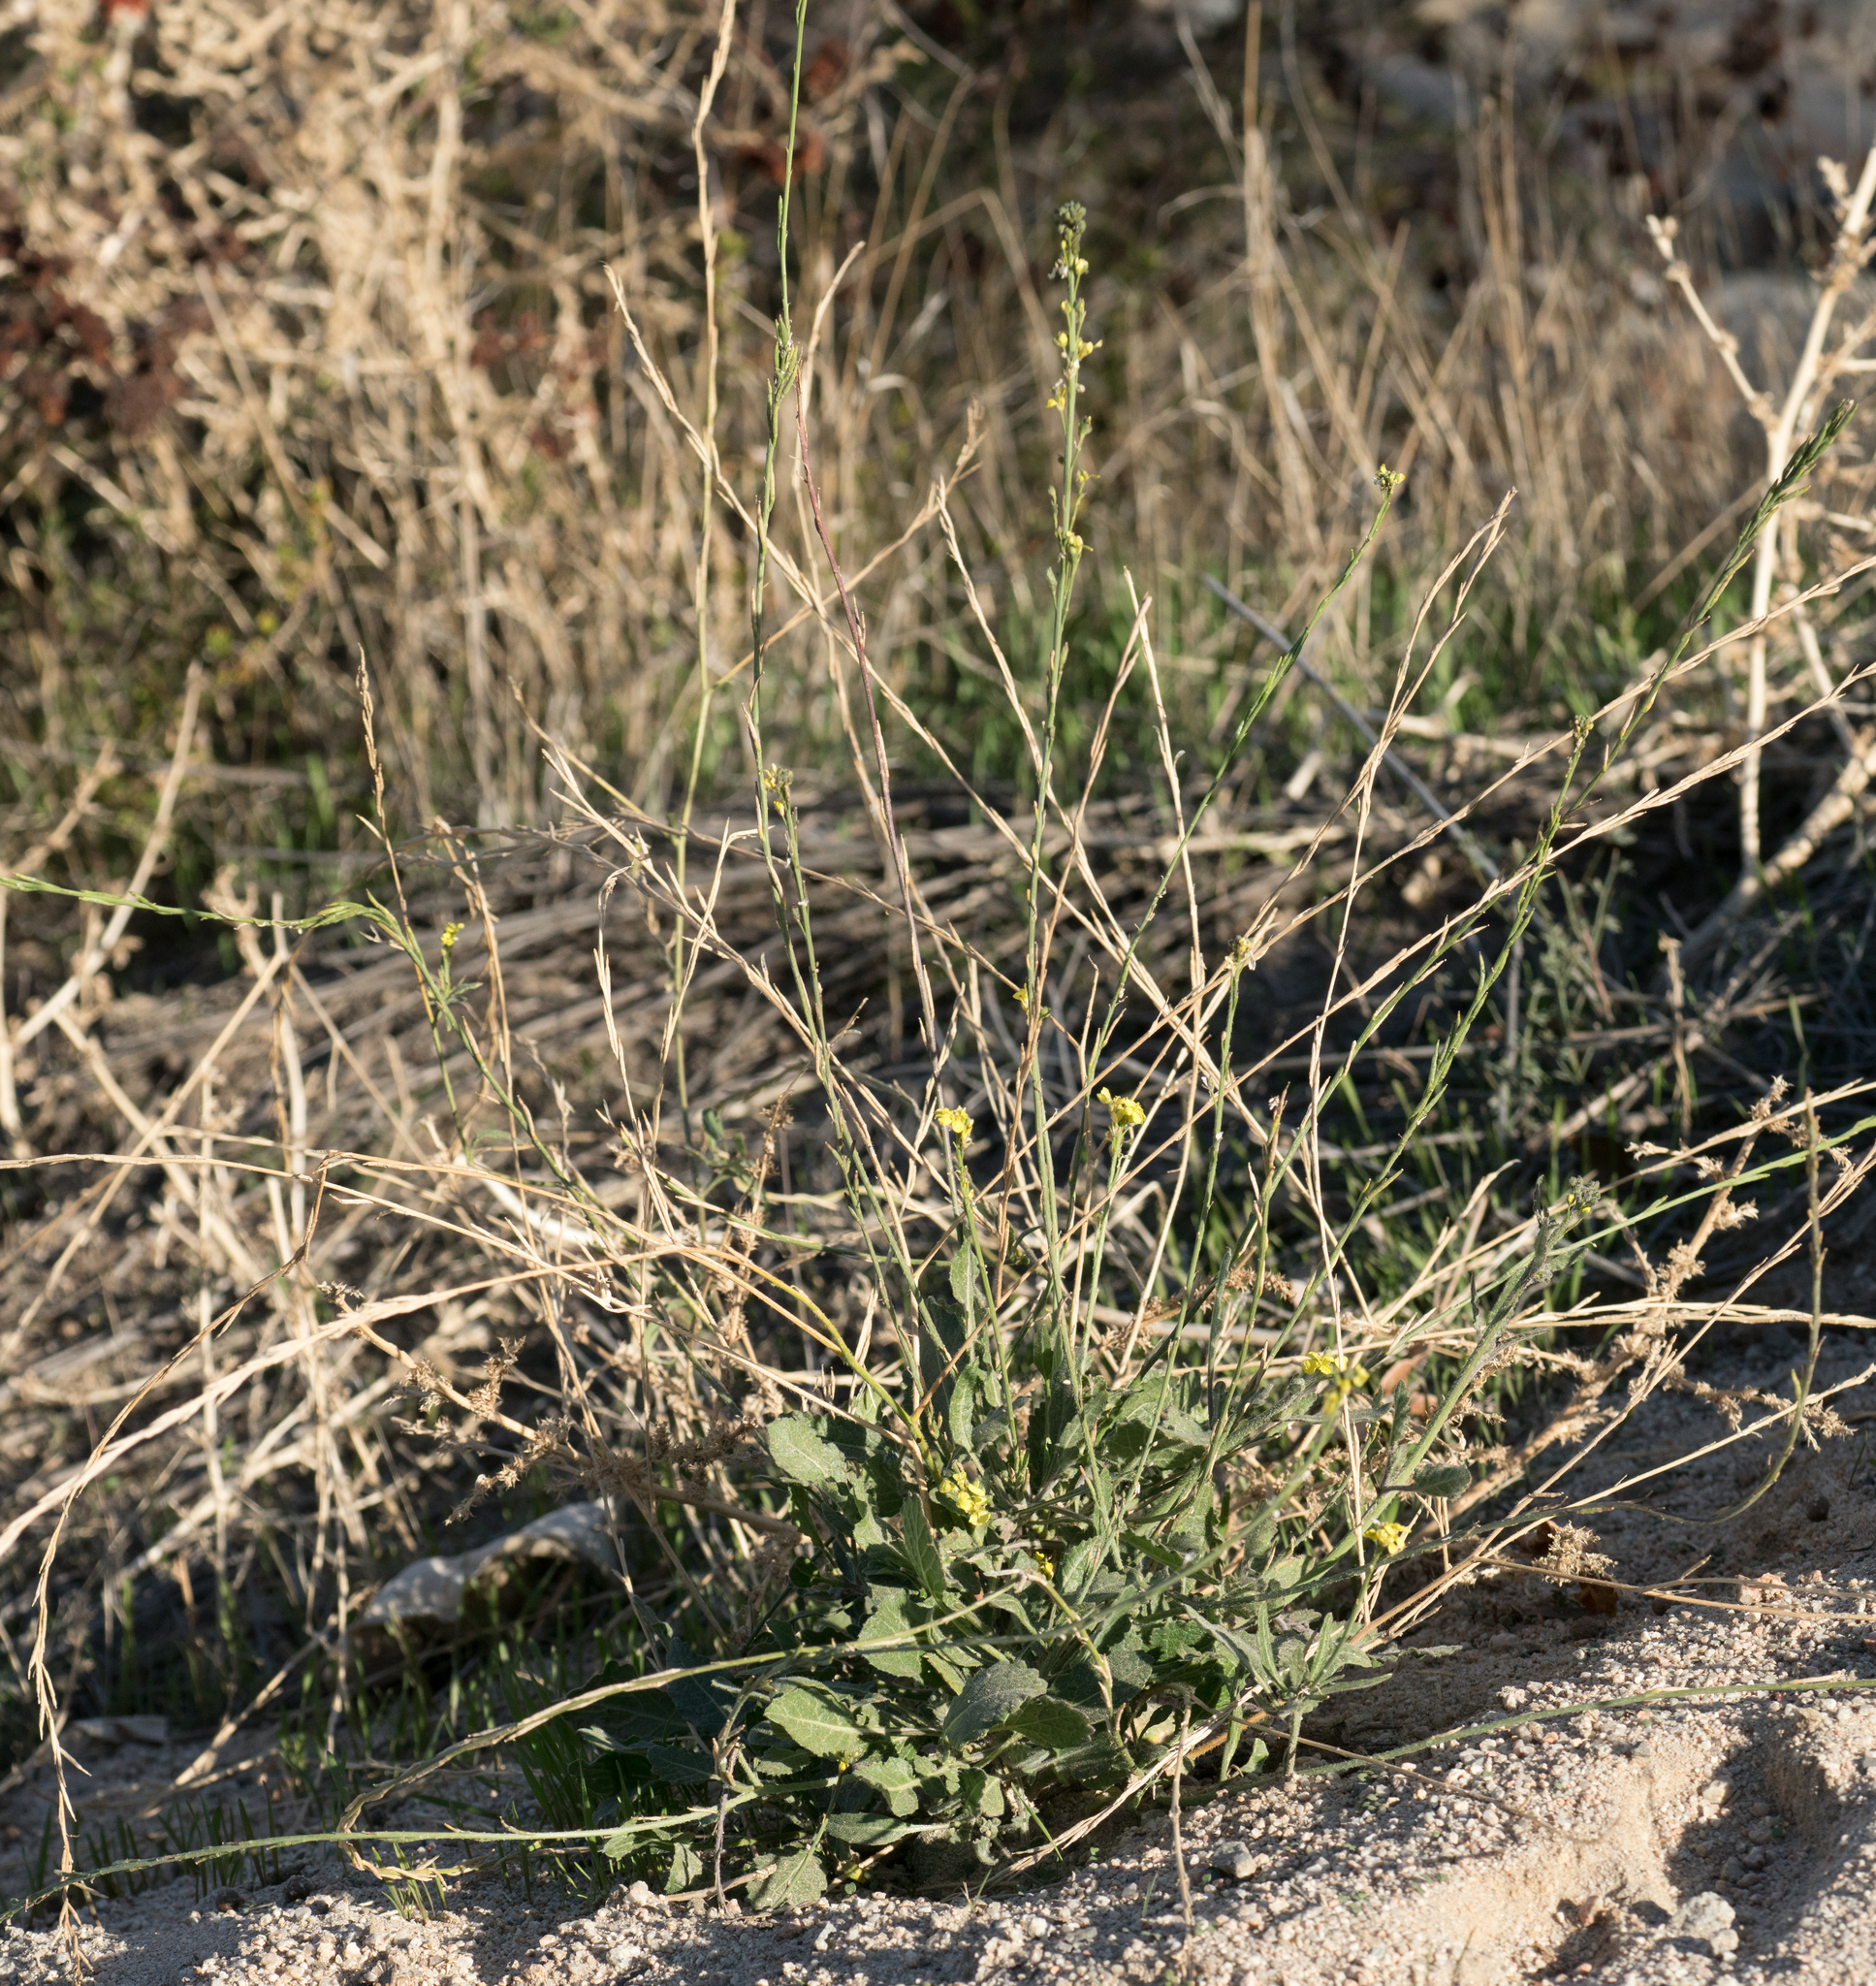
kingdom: Plantae
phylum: Tracheophyta
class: Magnoliopsida
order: Brassicales
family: Brassicaceae
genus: Hirschfeldia
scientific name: Hirschfeldia incana
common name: Hoary mustard
